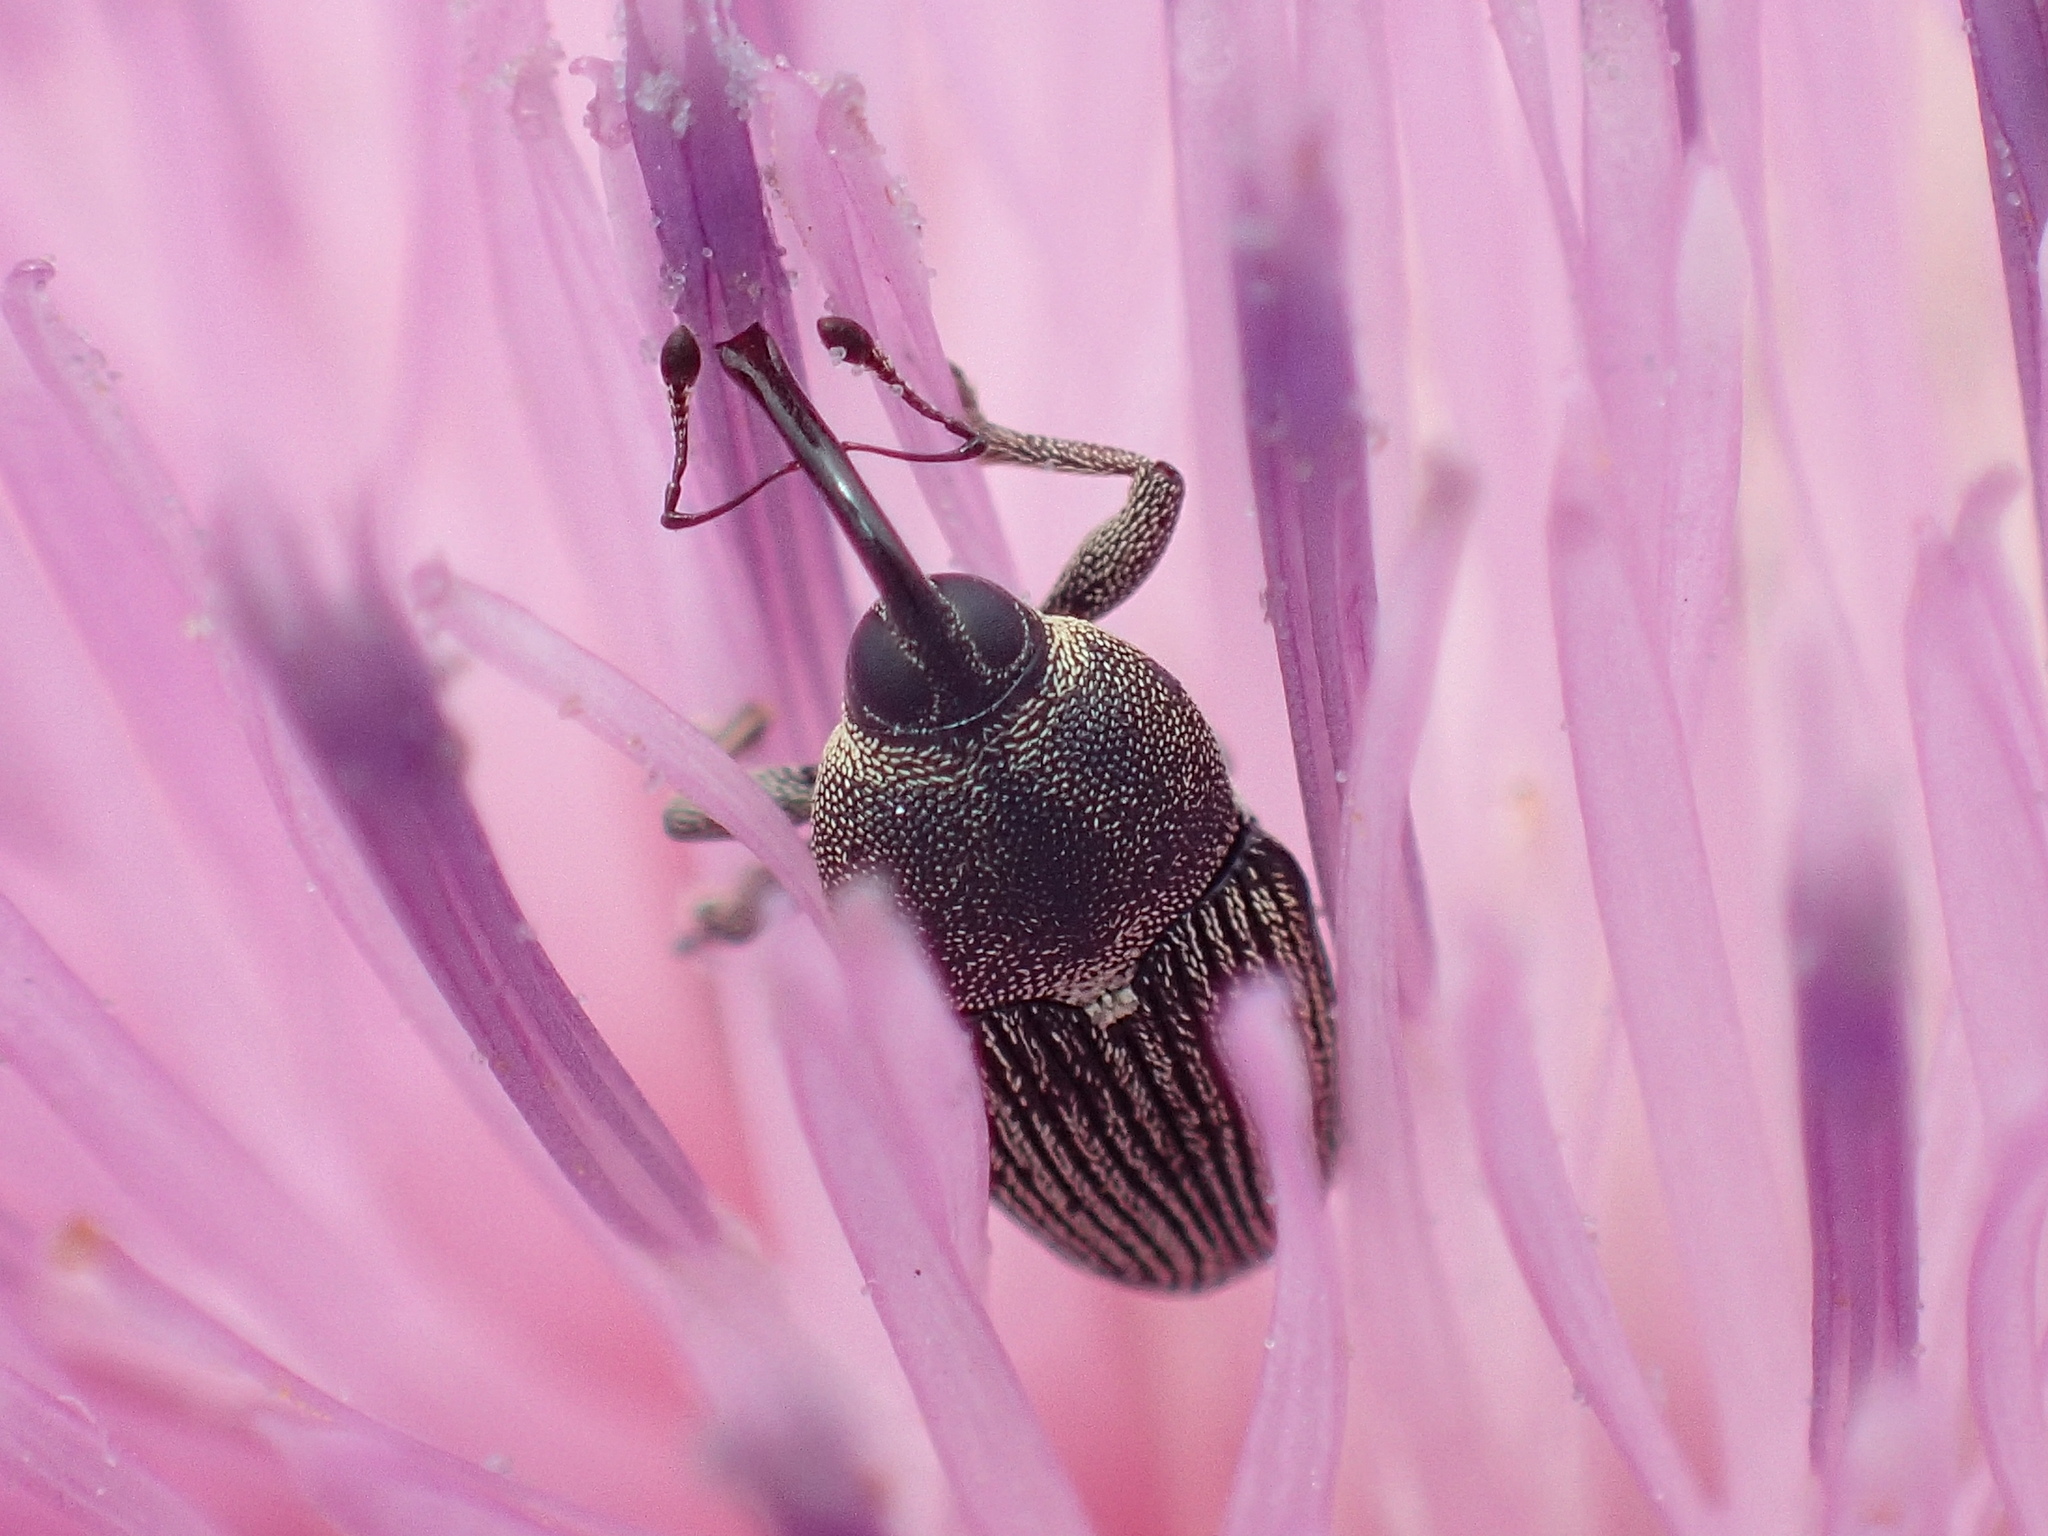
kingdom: Animalia
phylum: Arthropoda
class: Insecta
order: Coleoptera
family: Curculionidae
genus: Odontocorynus
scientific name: Odontocorynus salebrosus
